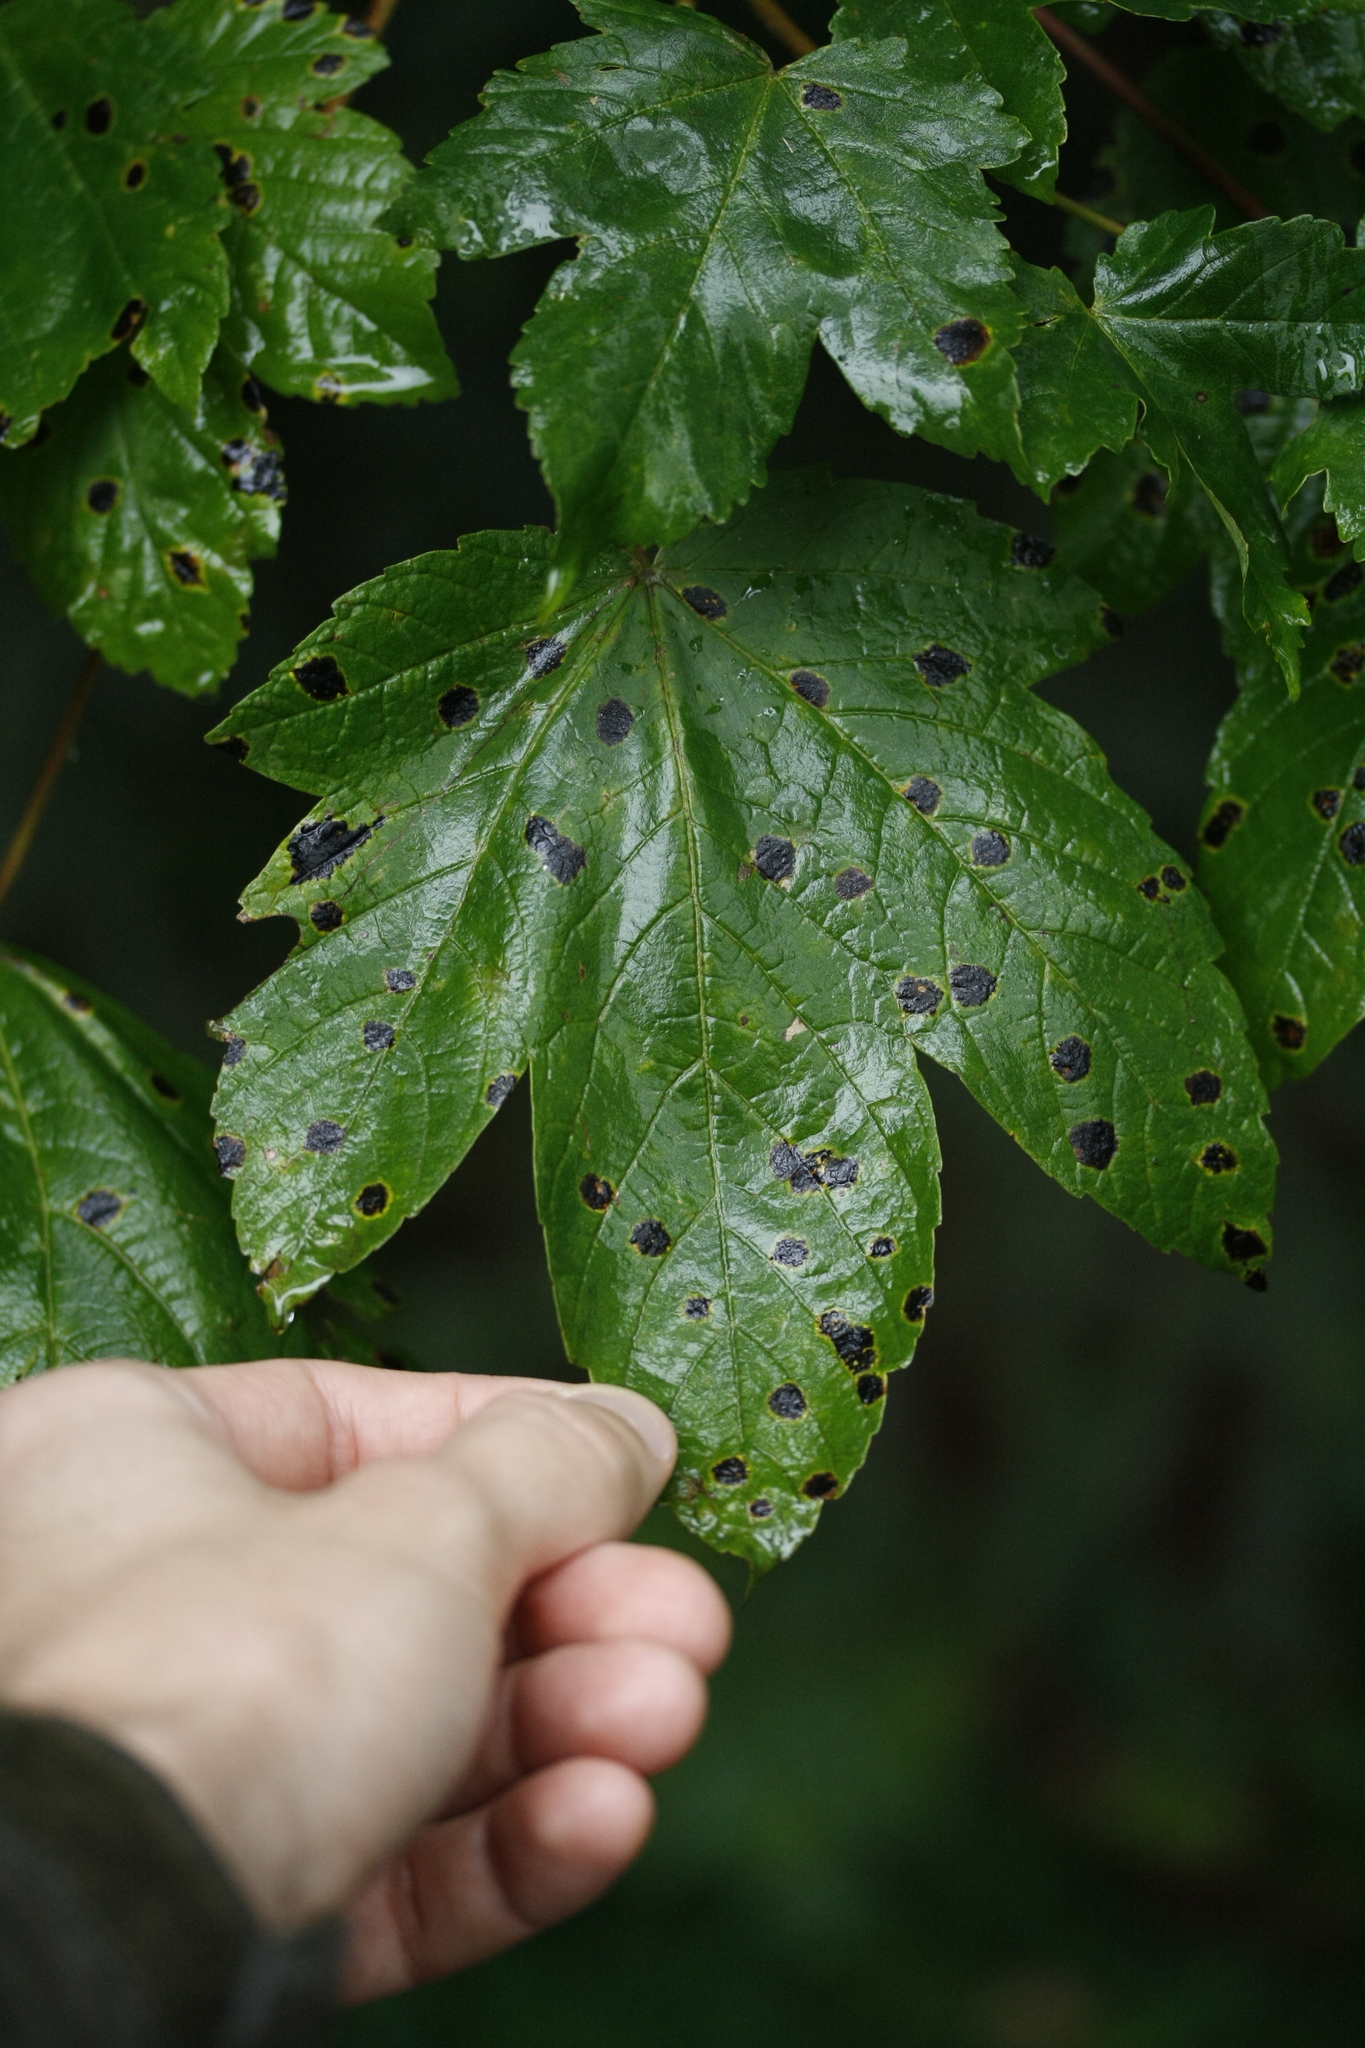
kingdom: Fungi
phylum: Ascomycota
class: Leotiomycetes
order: Rhytismatales
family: Rhytismataceae
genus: Rhytisma
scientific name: Rhytisma acerinum
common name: European tar spot
